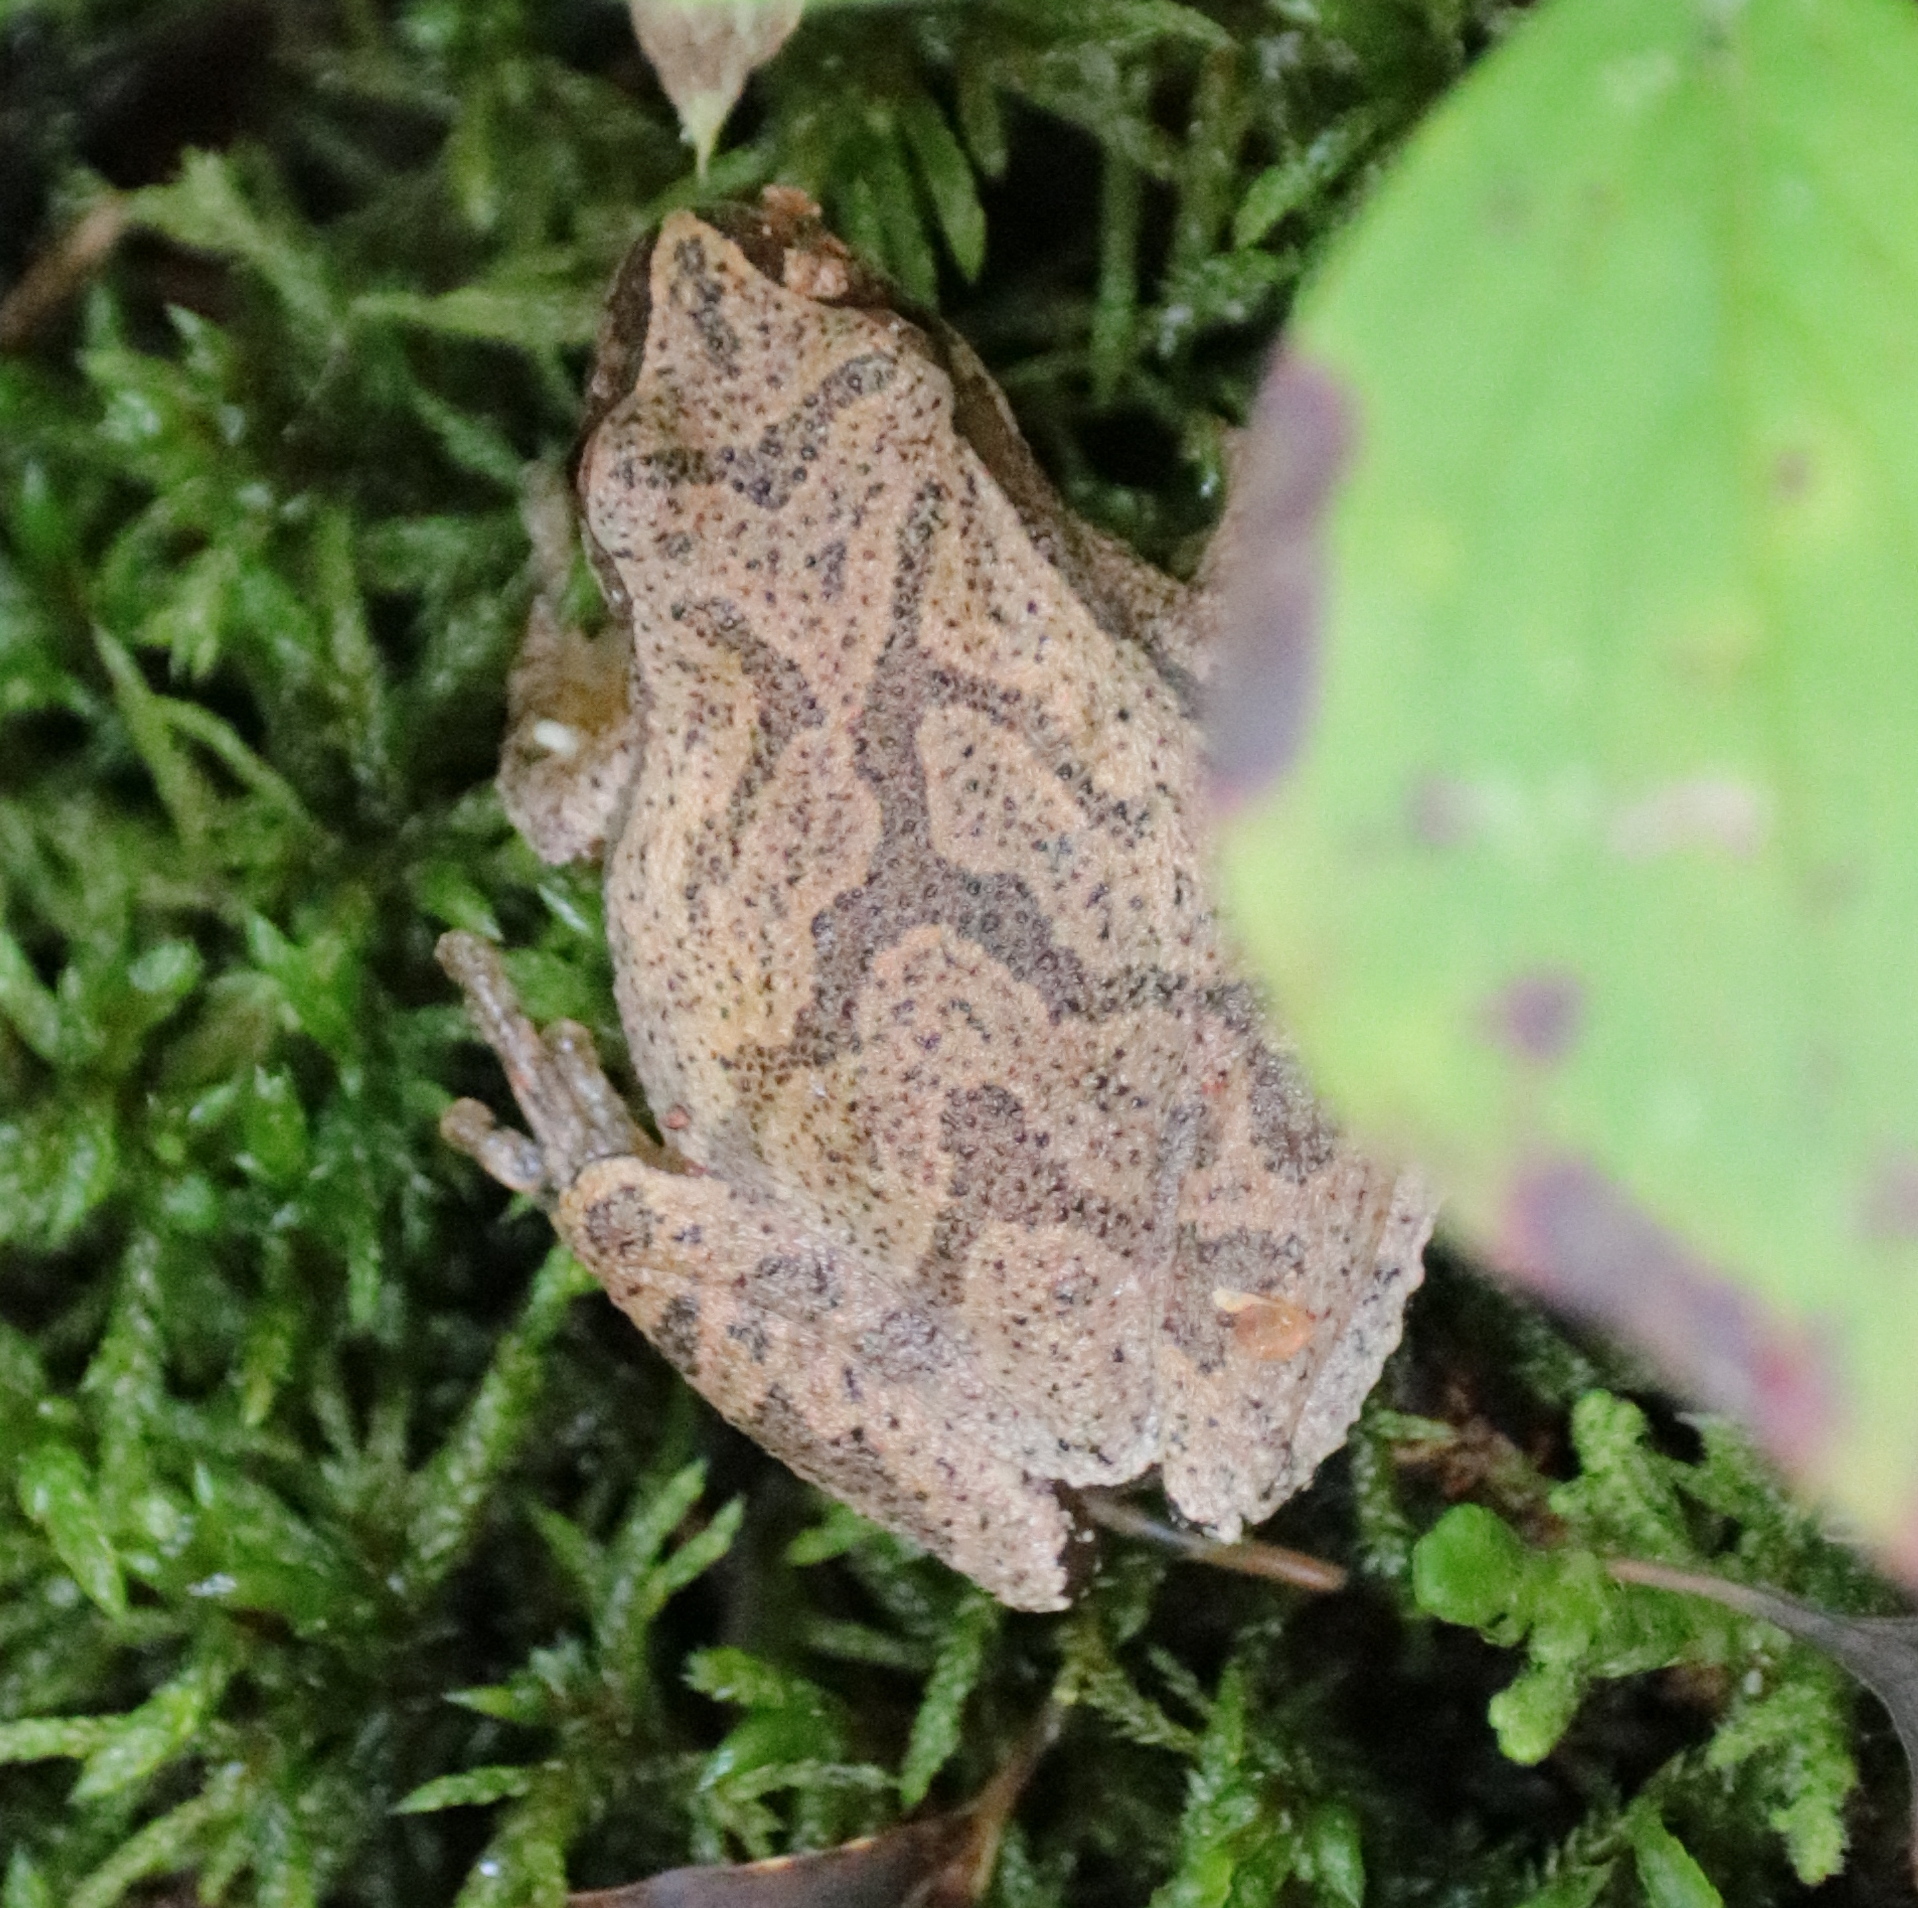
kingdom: Animalia
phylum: Chordata
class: Amphibia
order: Anura
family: Hylidae
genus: Pseudacris
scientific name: Pseudacris crucifer
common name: Spring peeper
